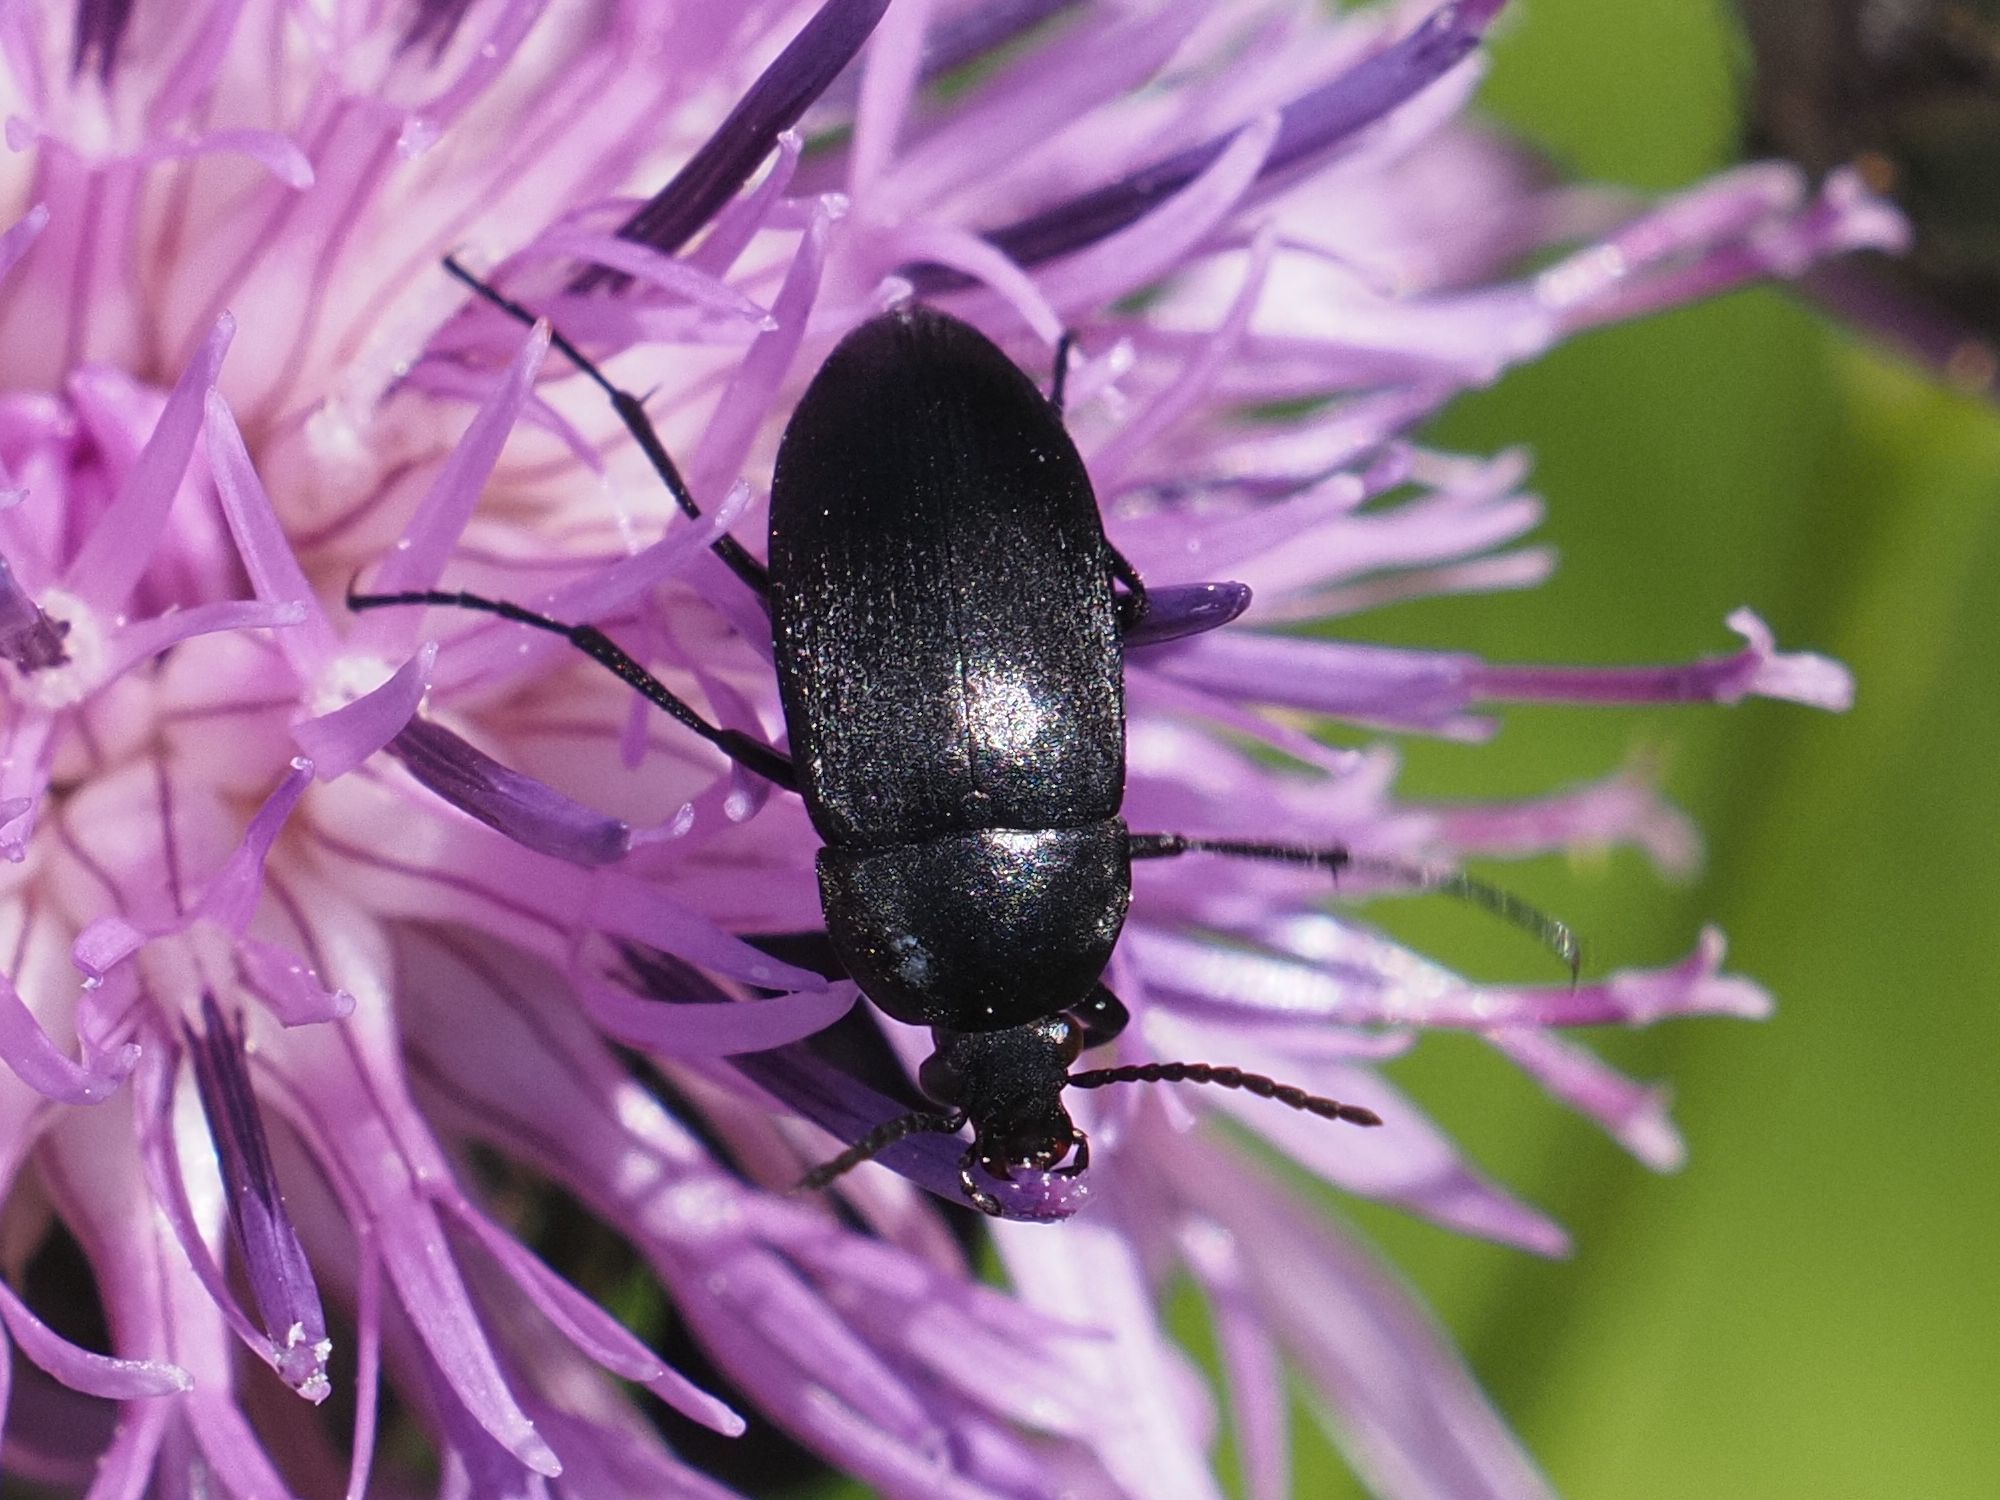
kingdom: Animalia
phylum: Arthropoda
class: Insecta
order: Coleoptera
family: Tenebrionidae
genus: Podonta
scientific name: Podonta nigrita
